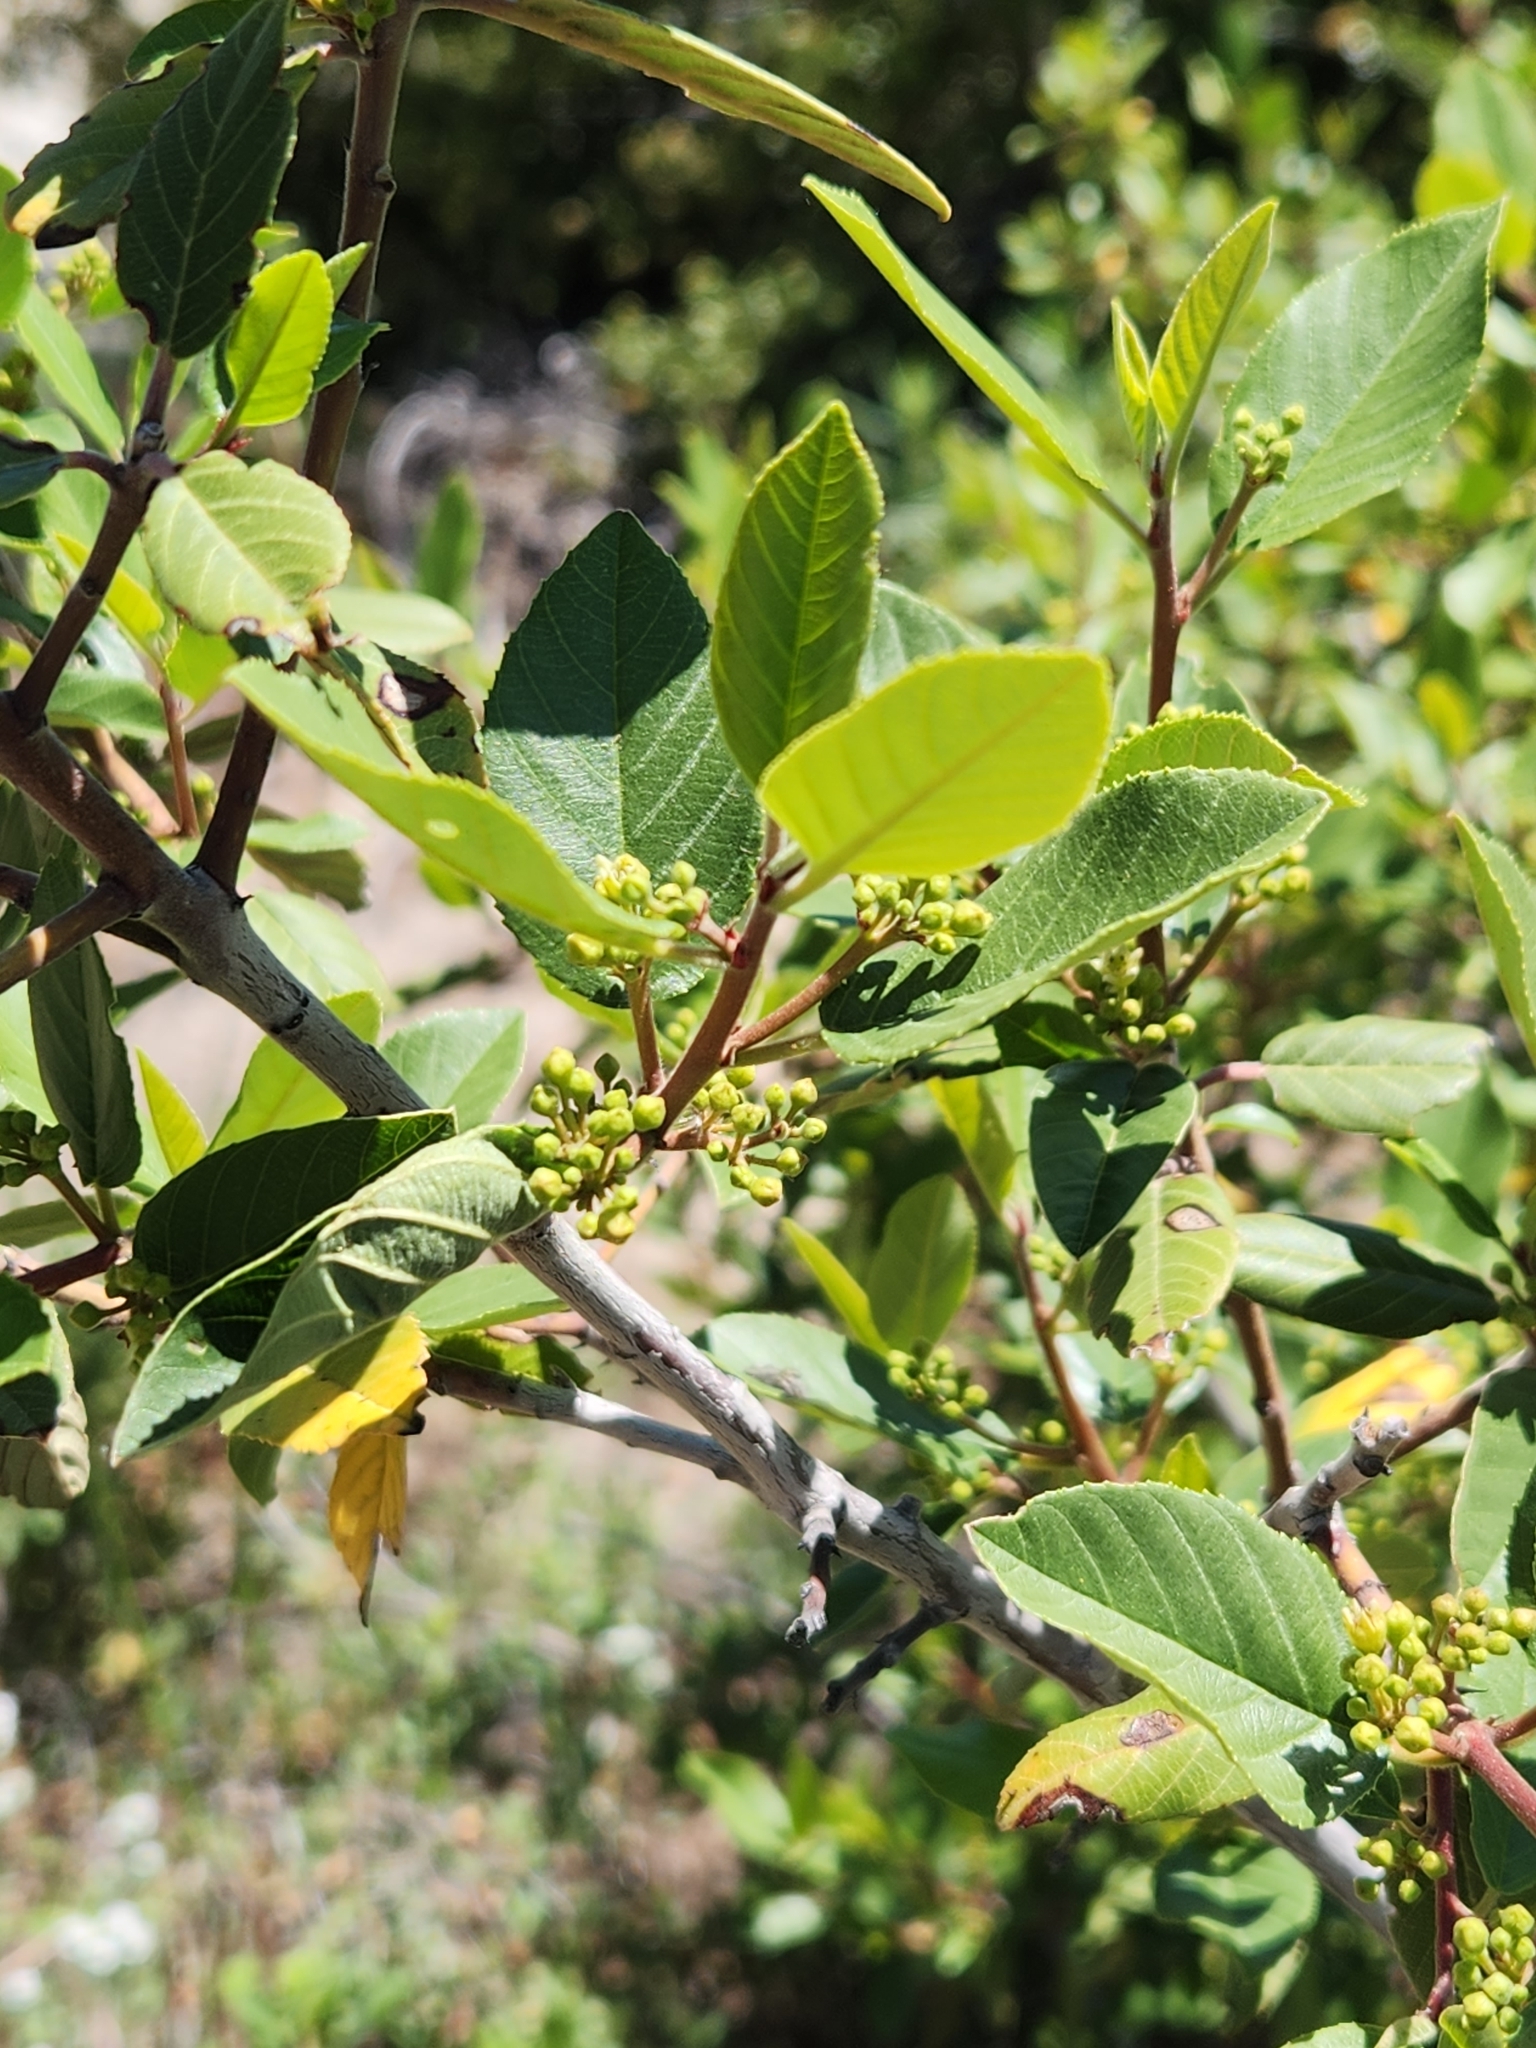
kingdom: Plantae
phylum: Tracheophyta
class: Magnoliopsida
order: Rosales
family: Rhamnaceae
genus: Frangula
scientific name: Frangula californica
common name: California buckthorn
